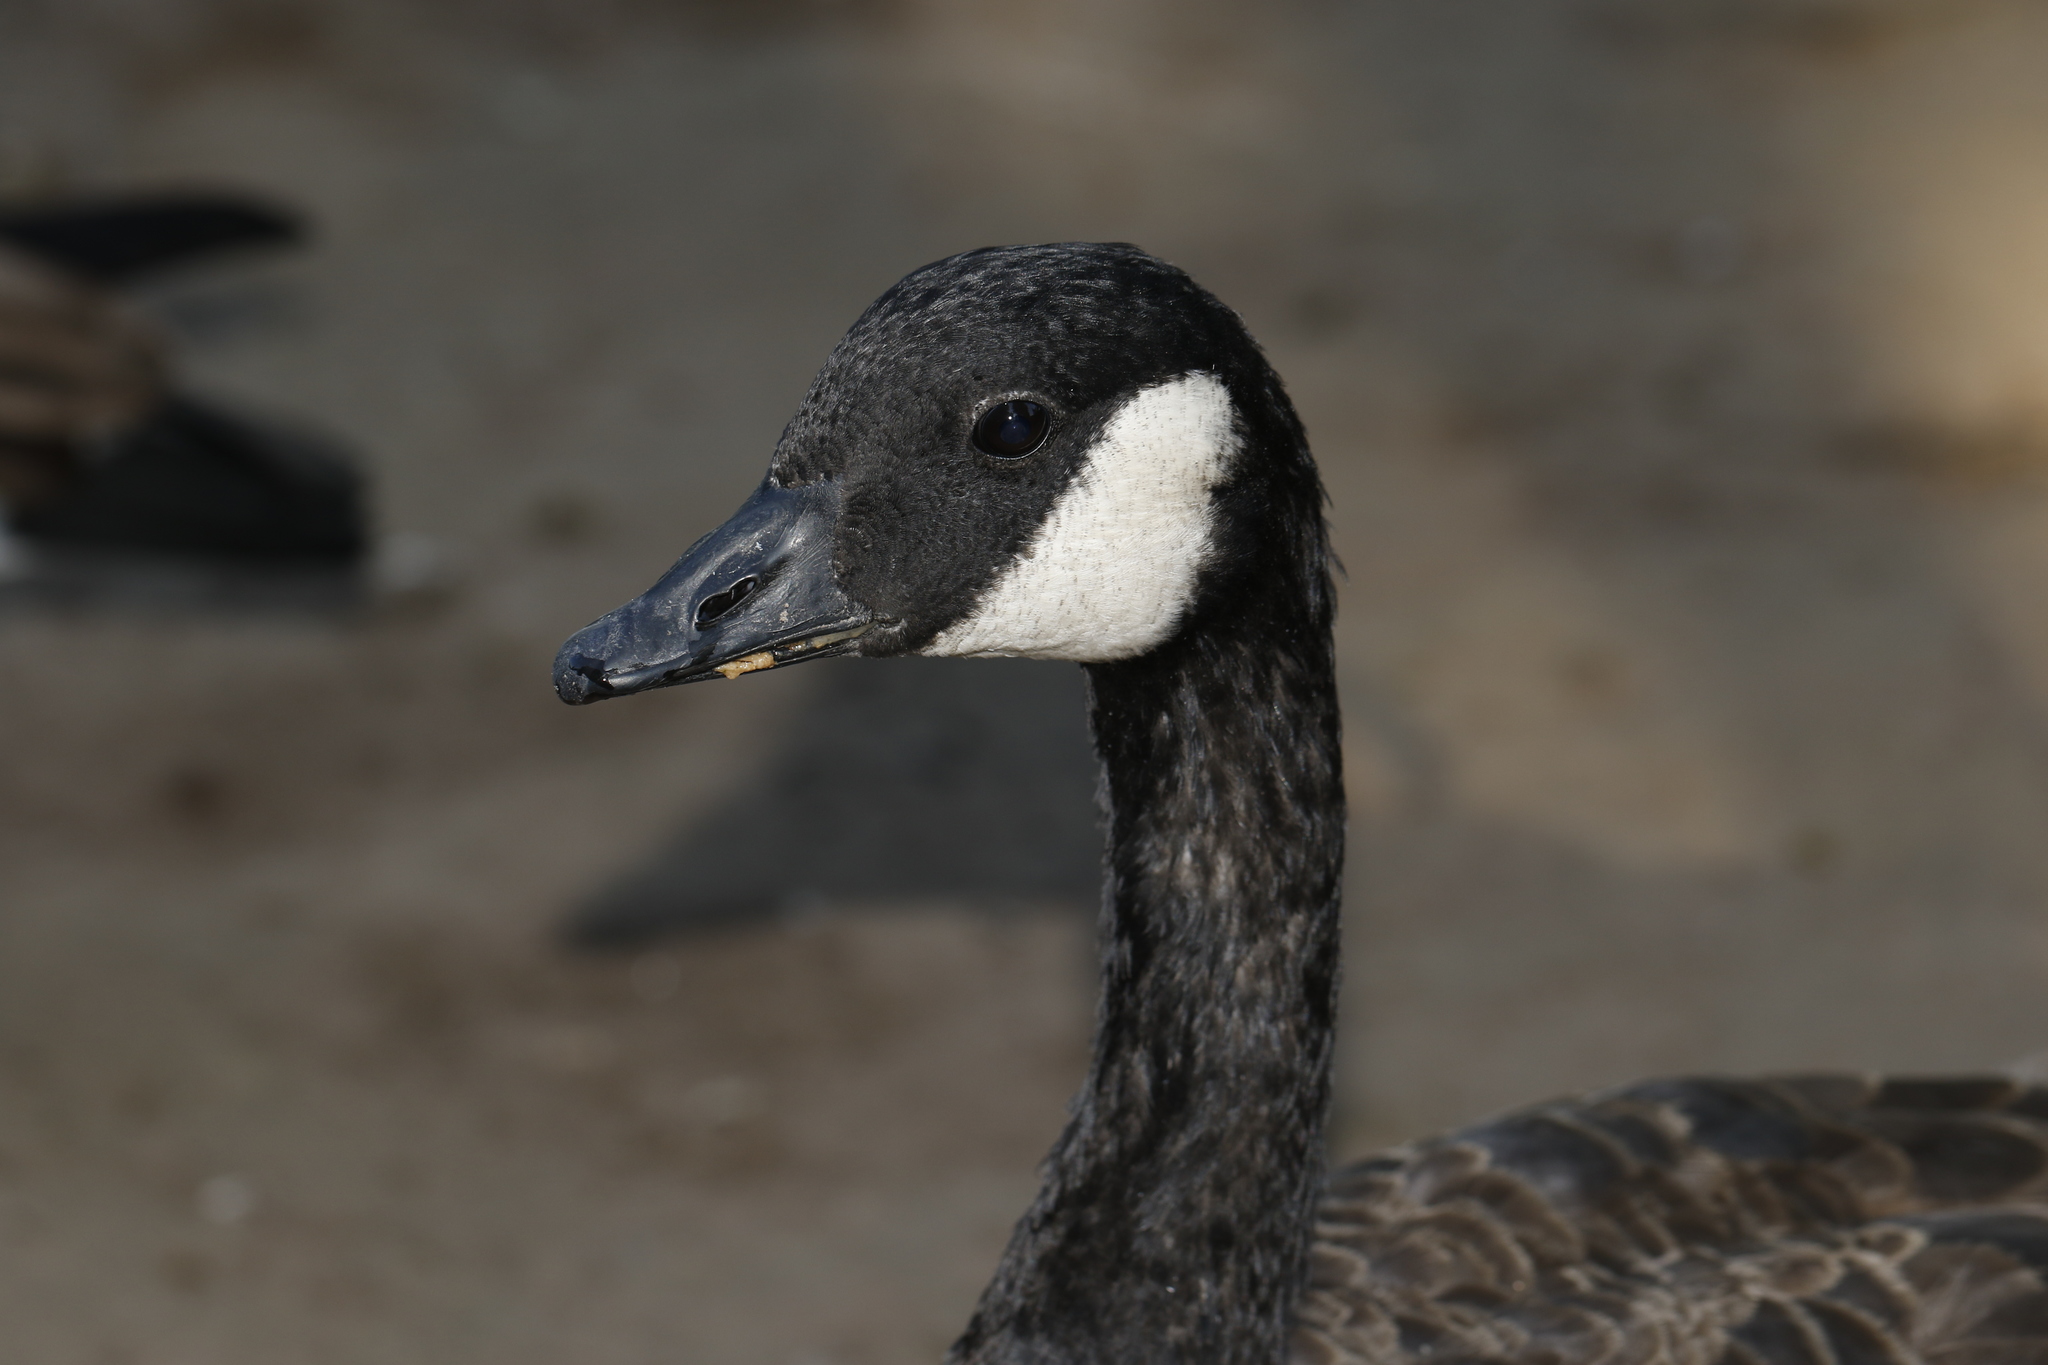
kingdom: Animalia
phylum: Chordata
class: Aves
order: Anseriformes
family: Anatidae
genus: Branta
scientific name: Branta canadensis
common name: Canada goose
